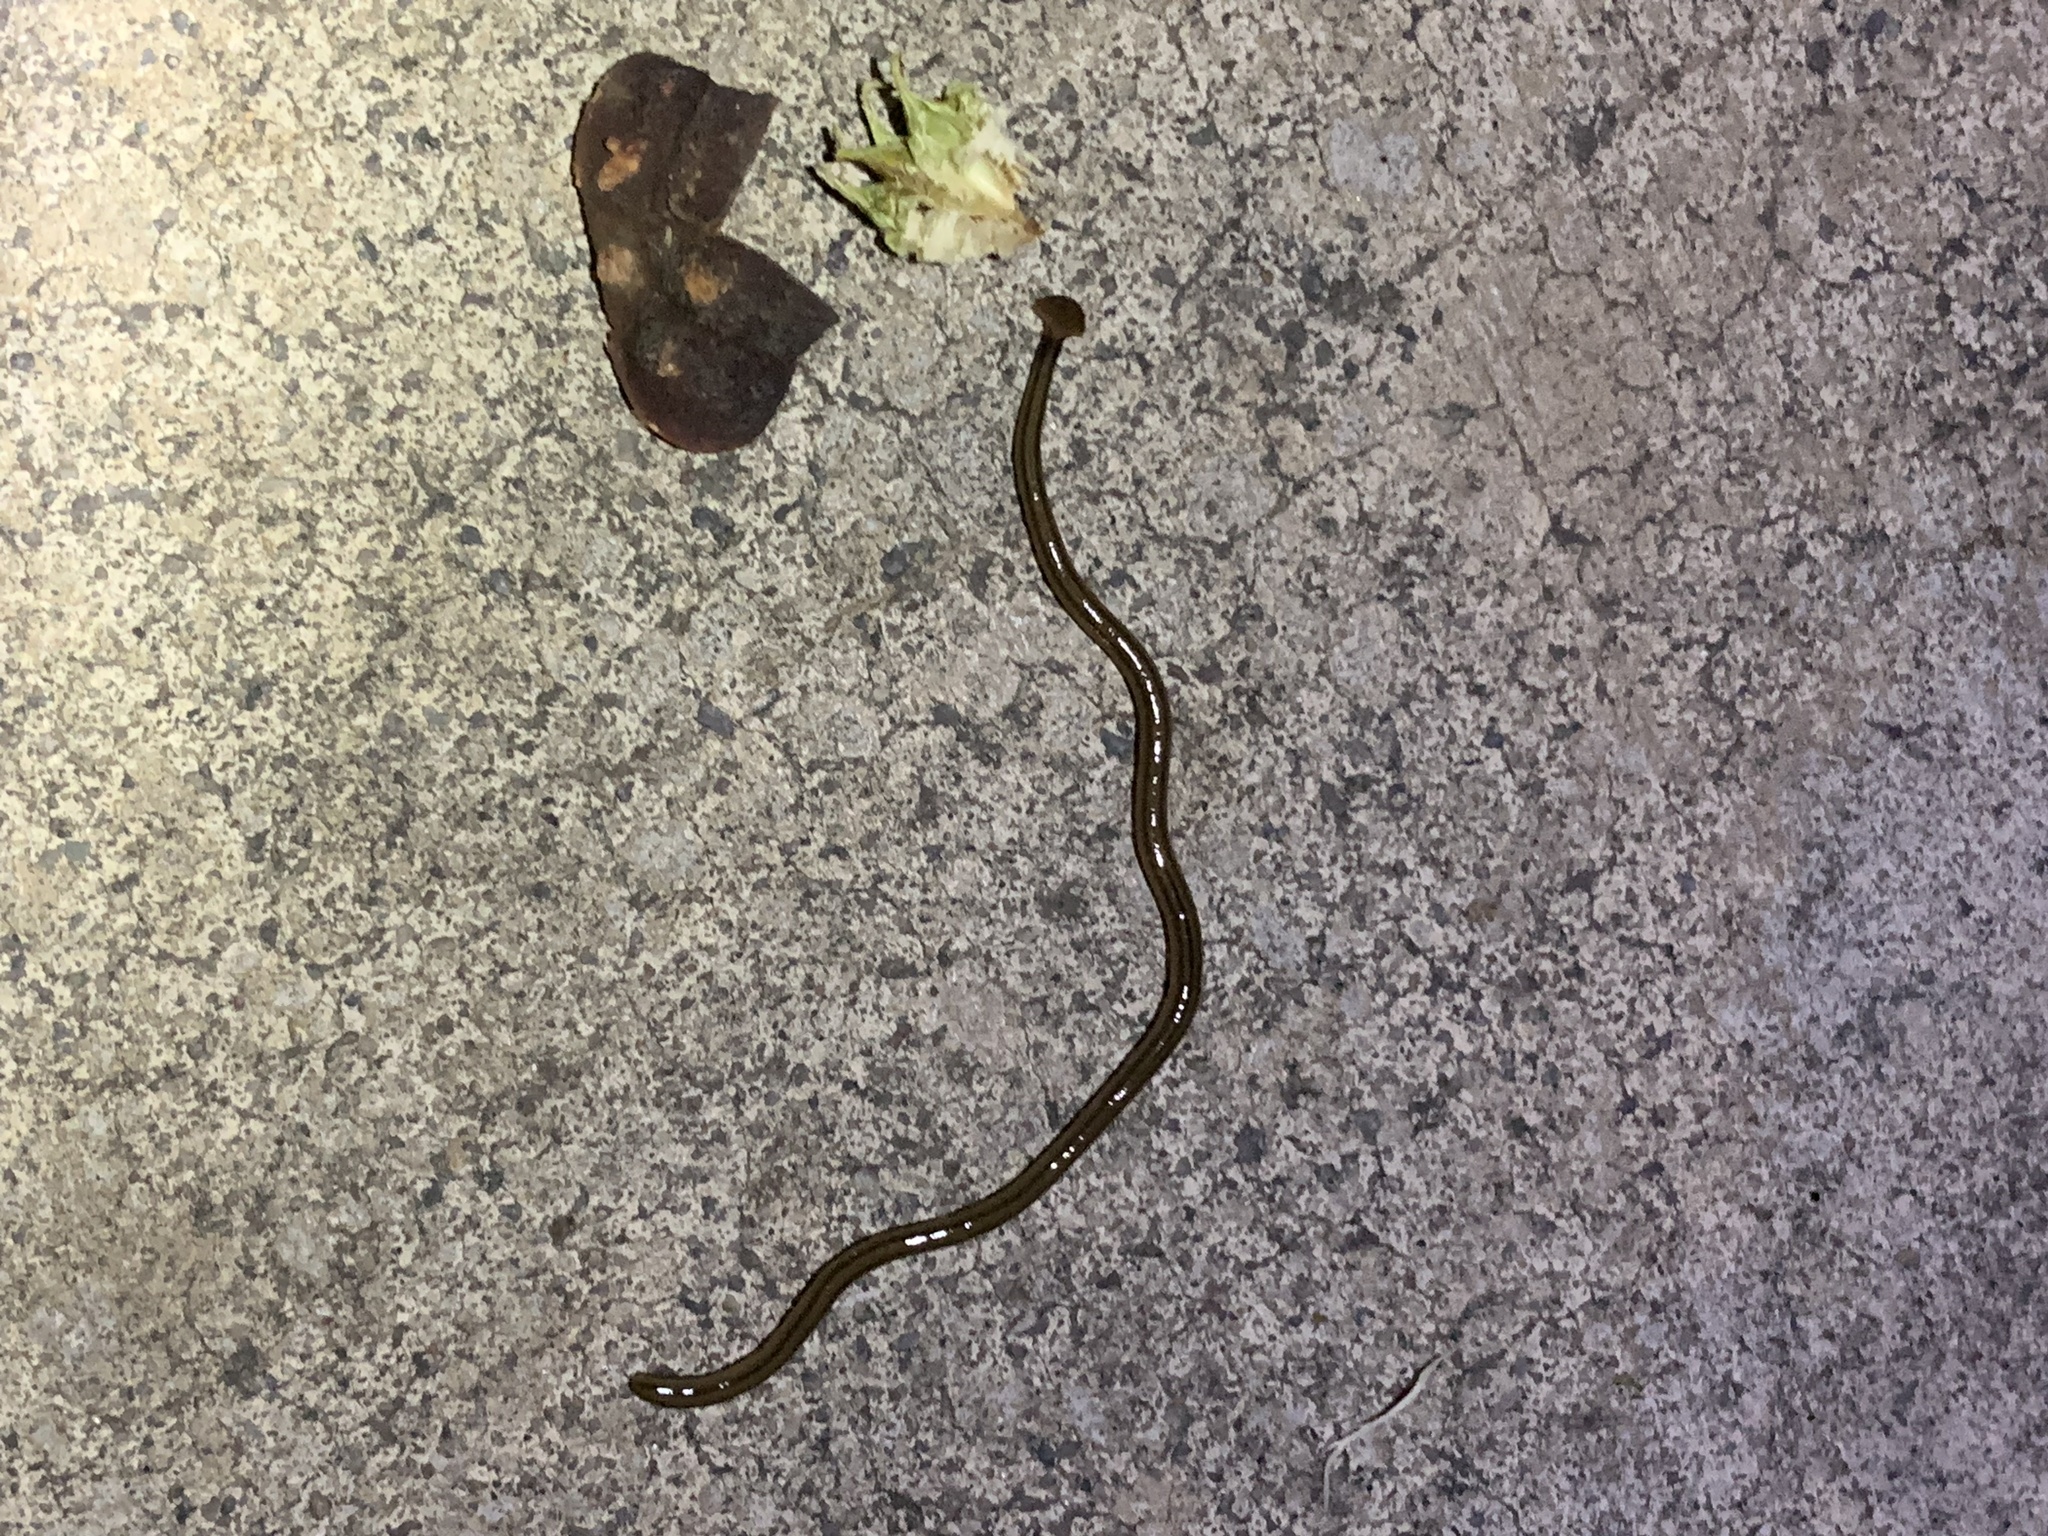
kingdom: Animalia
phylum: Platyhelminthes
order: Tricladida
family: Geoplanidae
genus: Bipalium
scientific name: Bipalium kewense
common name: Hammerhead flatworm
